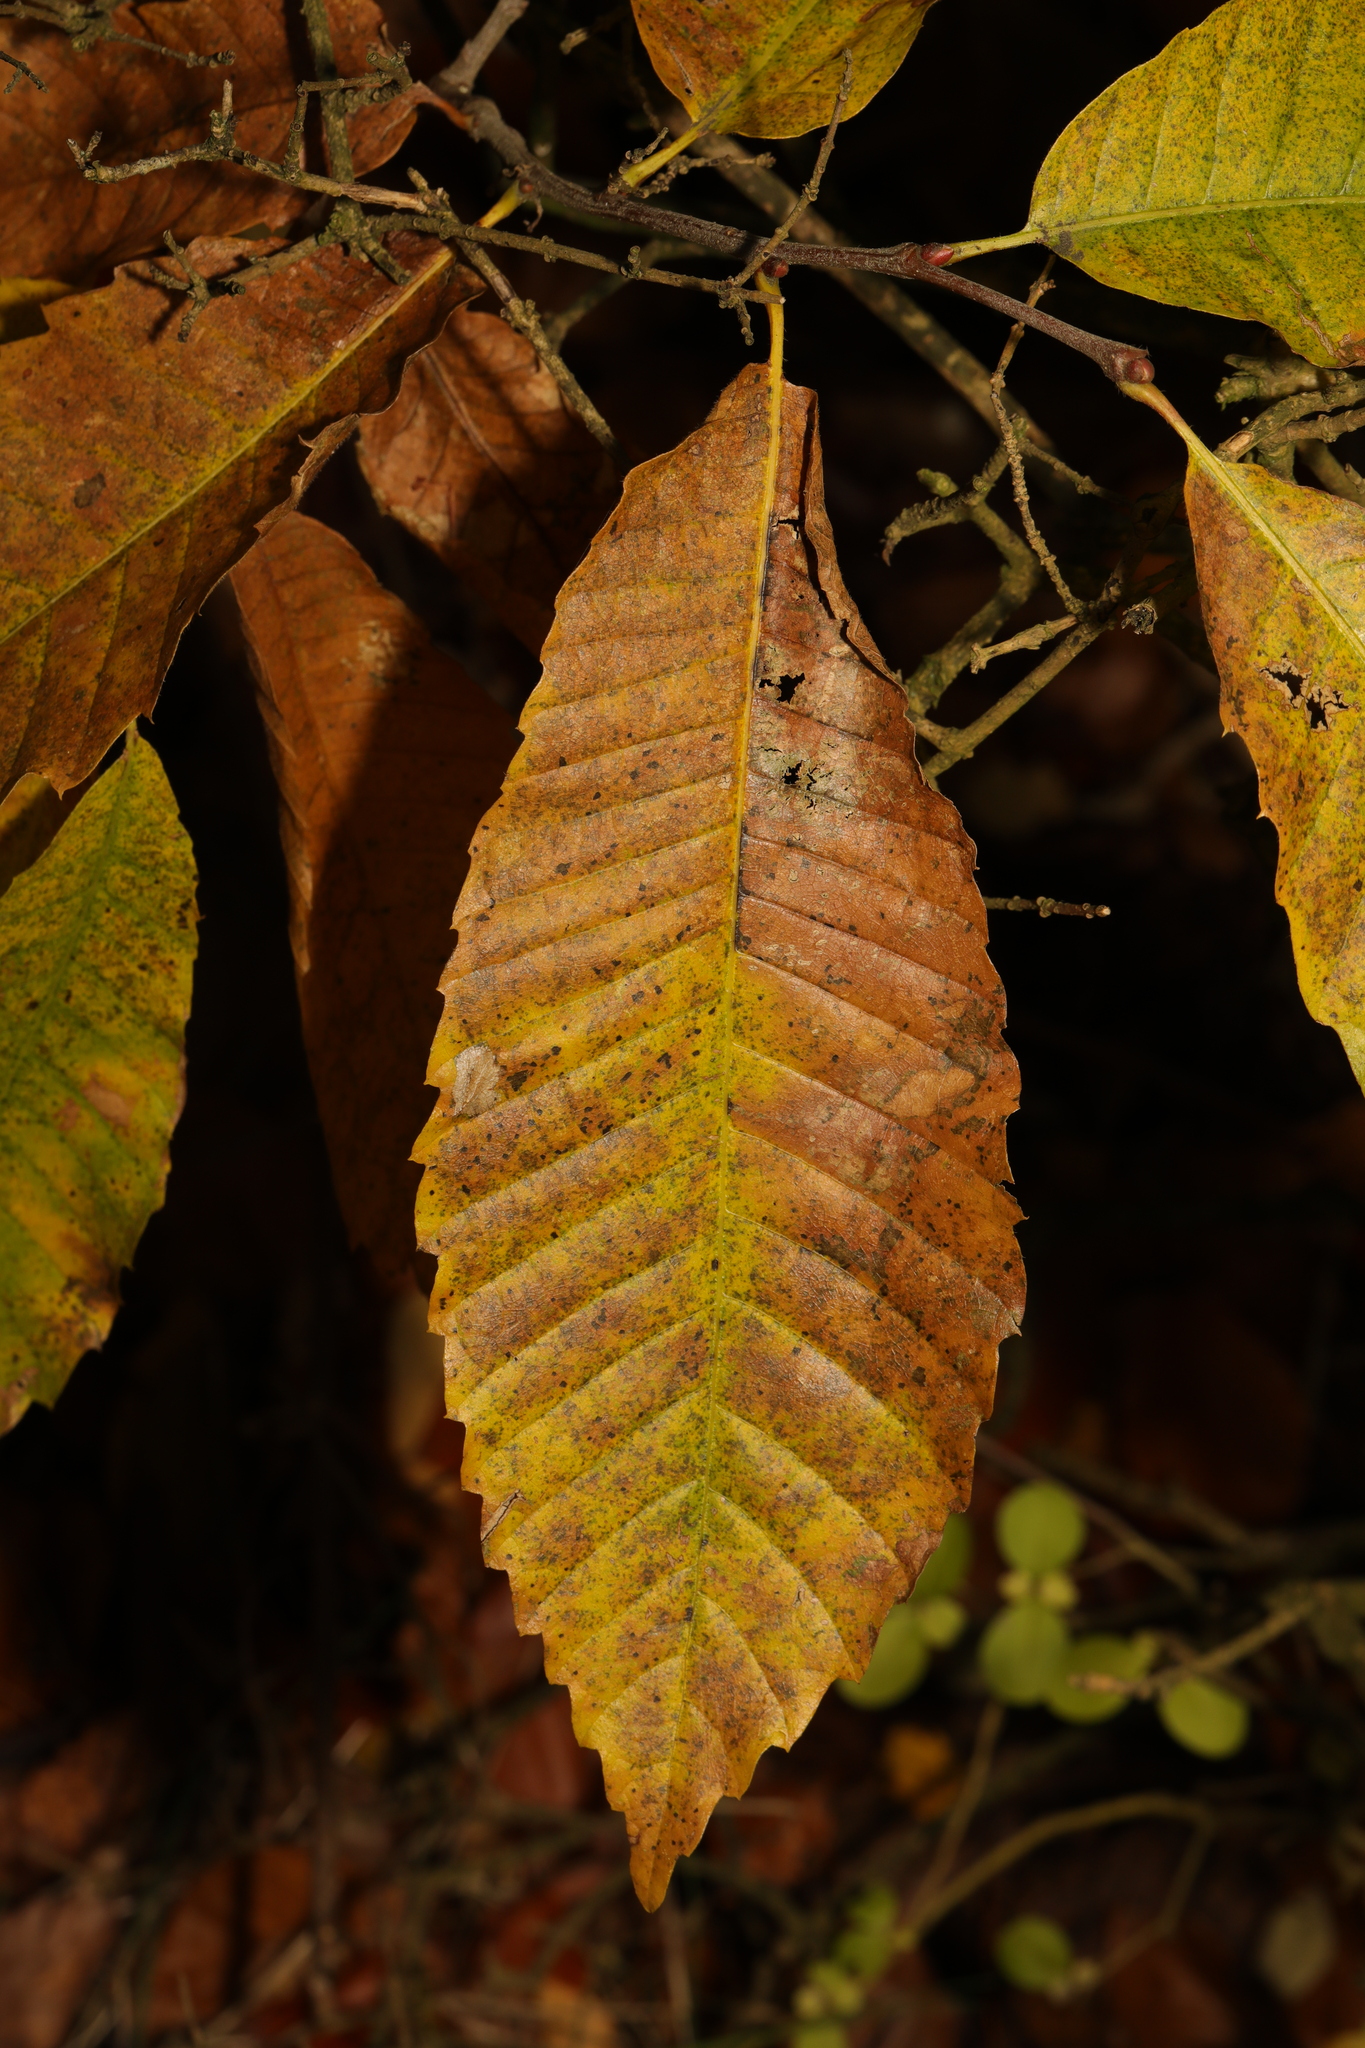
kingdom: Plantae
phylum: Tracheophyta
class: Magnoliopsida
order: Fagales
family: Fagaceae
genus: Castanea
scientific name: Castanea sativa
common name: Sweet chestnut
